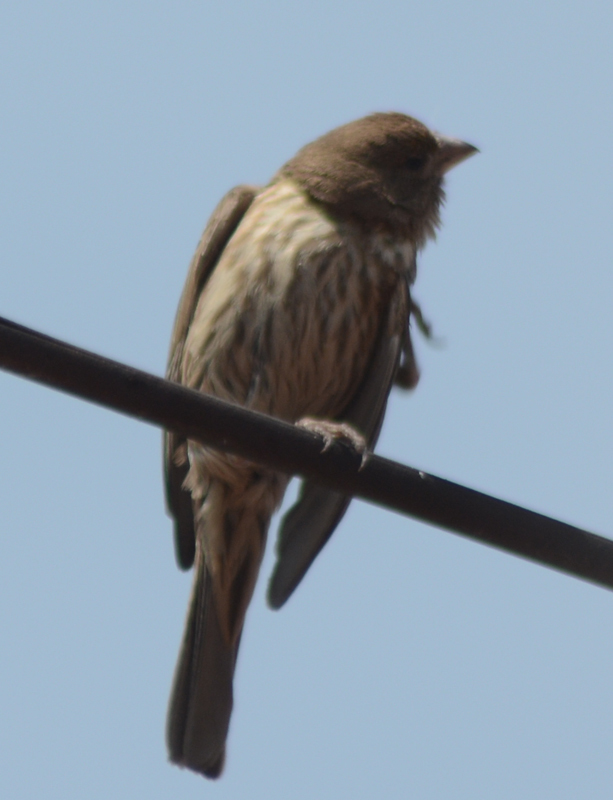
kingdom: Animalia
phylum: Chordata
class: Aves
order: Passeriformes
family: Fringillidae
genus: Haemorhous
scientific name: Haemorhous mexicanus
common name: House finch
